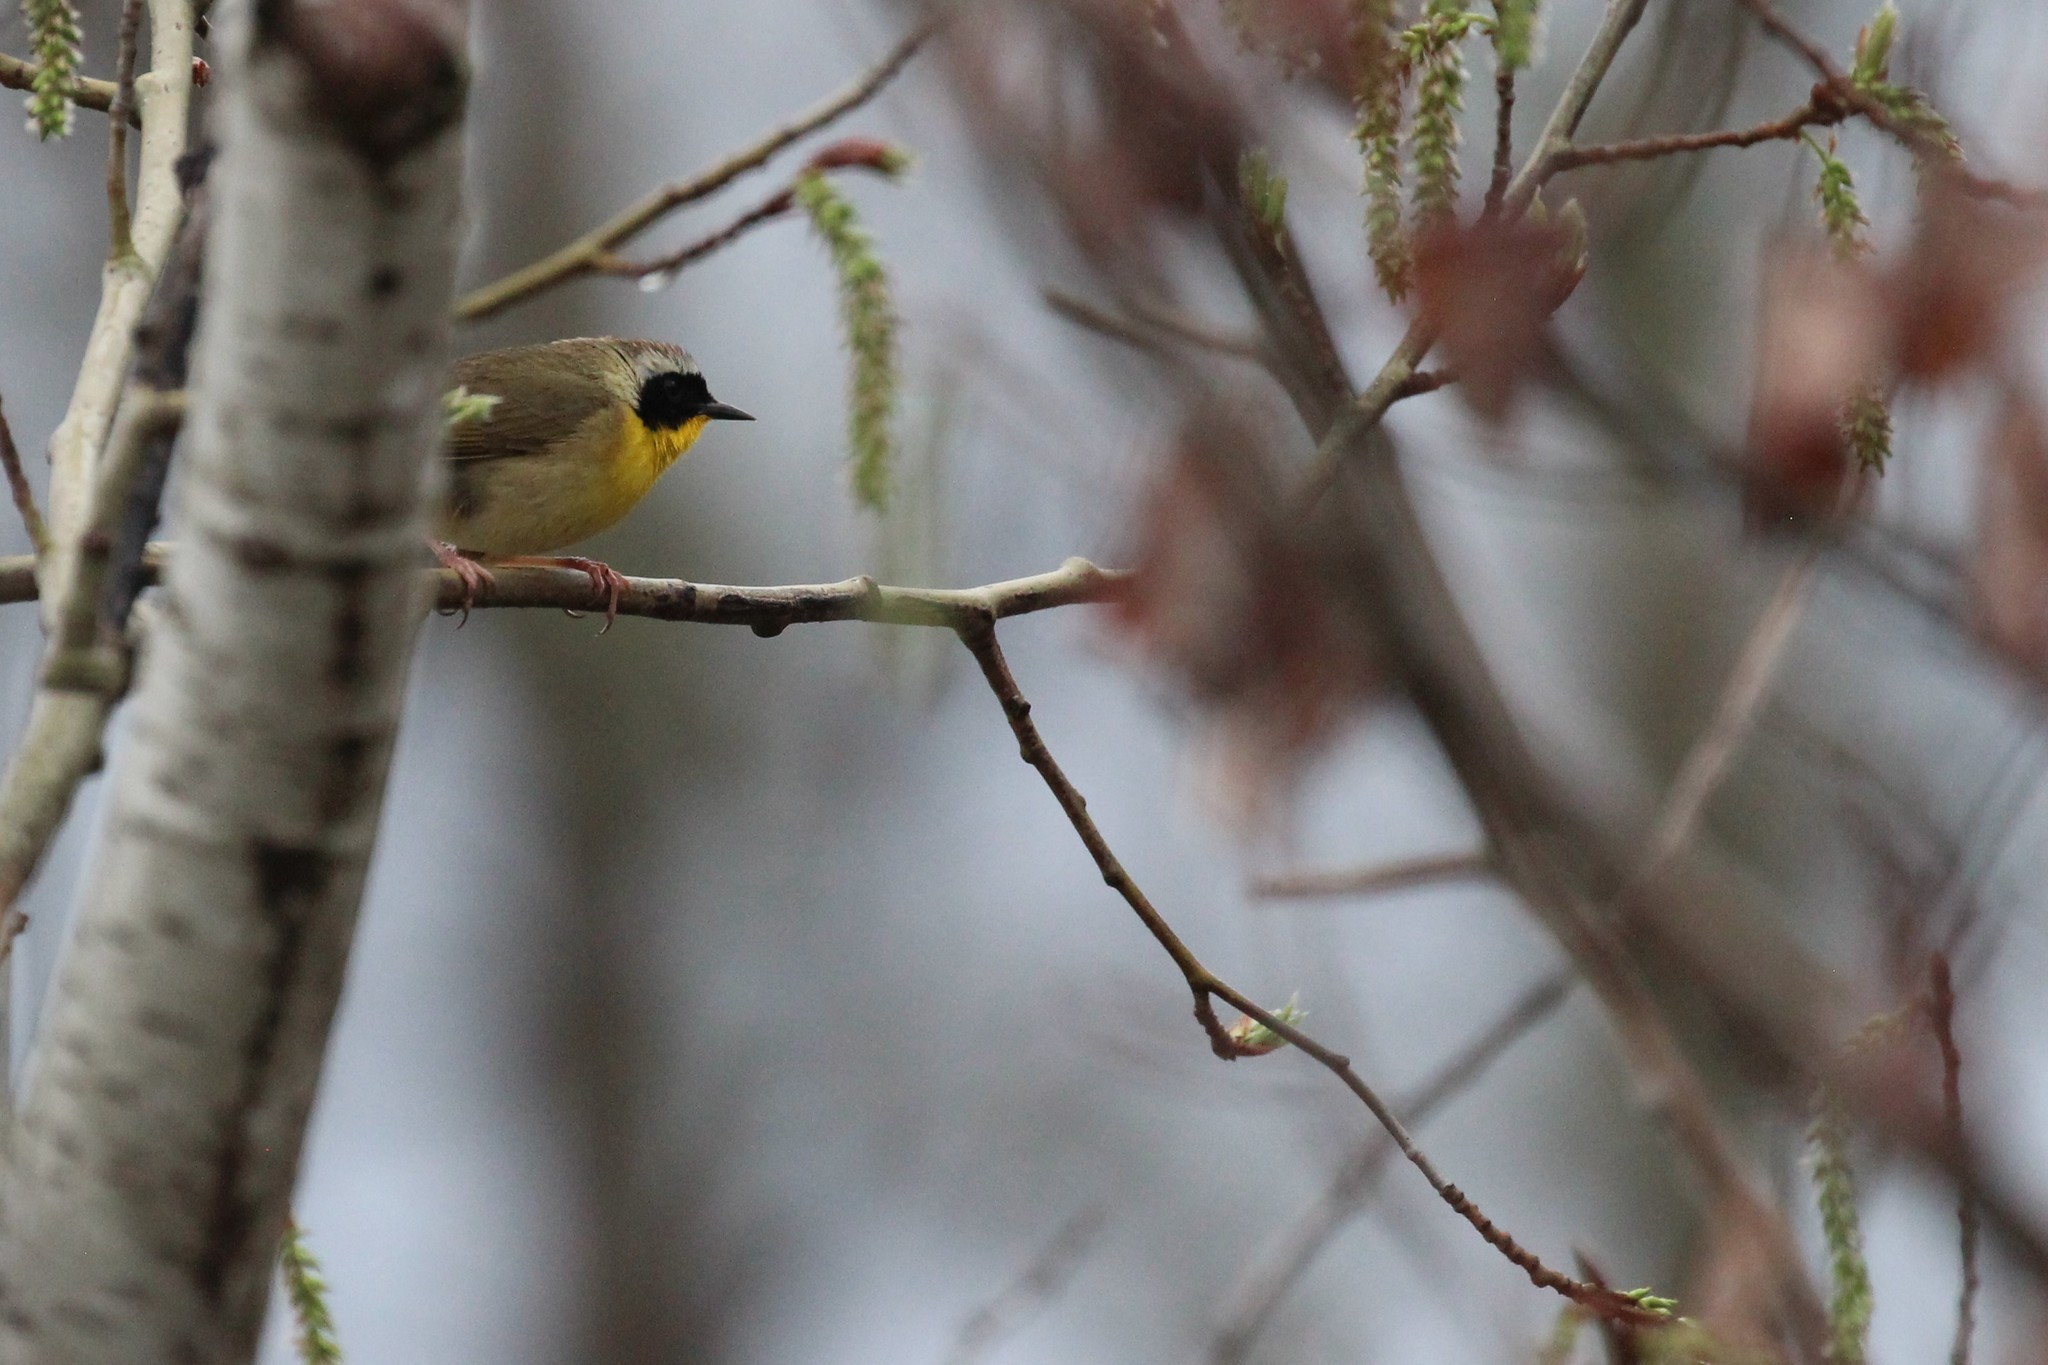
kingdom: Animalia
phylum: Chordata
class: Aves
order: Passeriformes
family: Parulidae
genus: Geothlypis
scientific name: Geothlypis trichas
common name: Common yellowthroat
